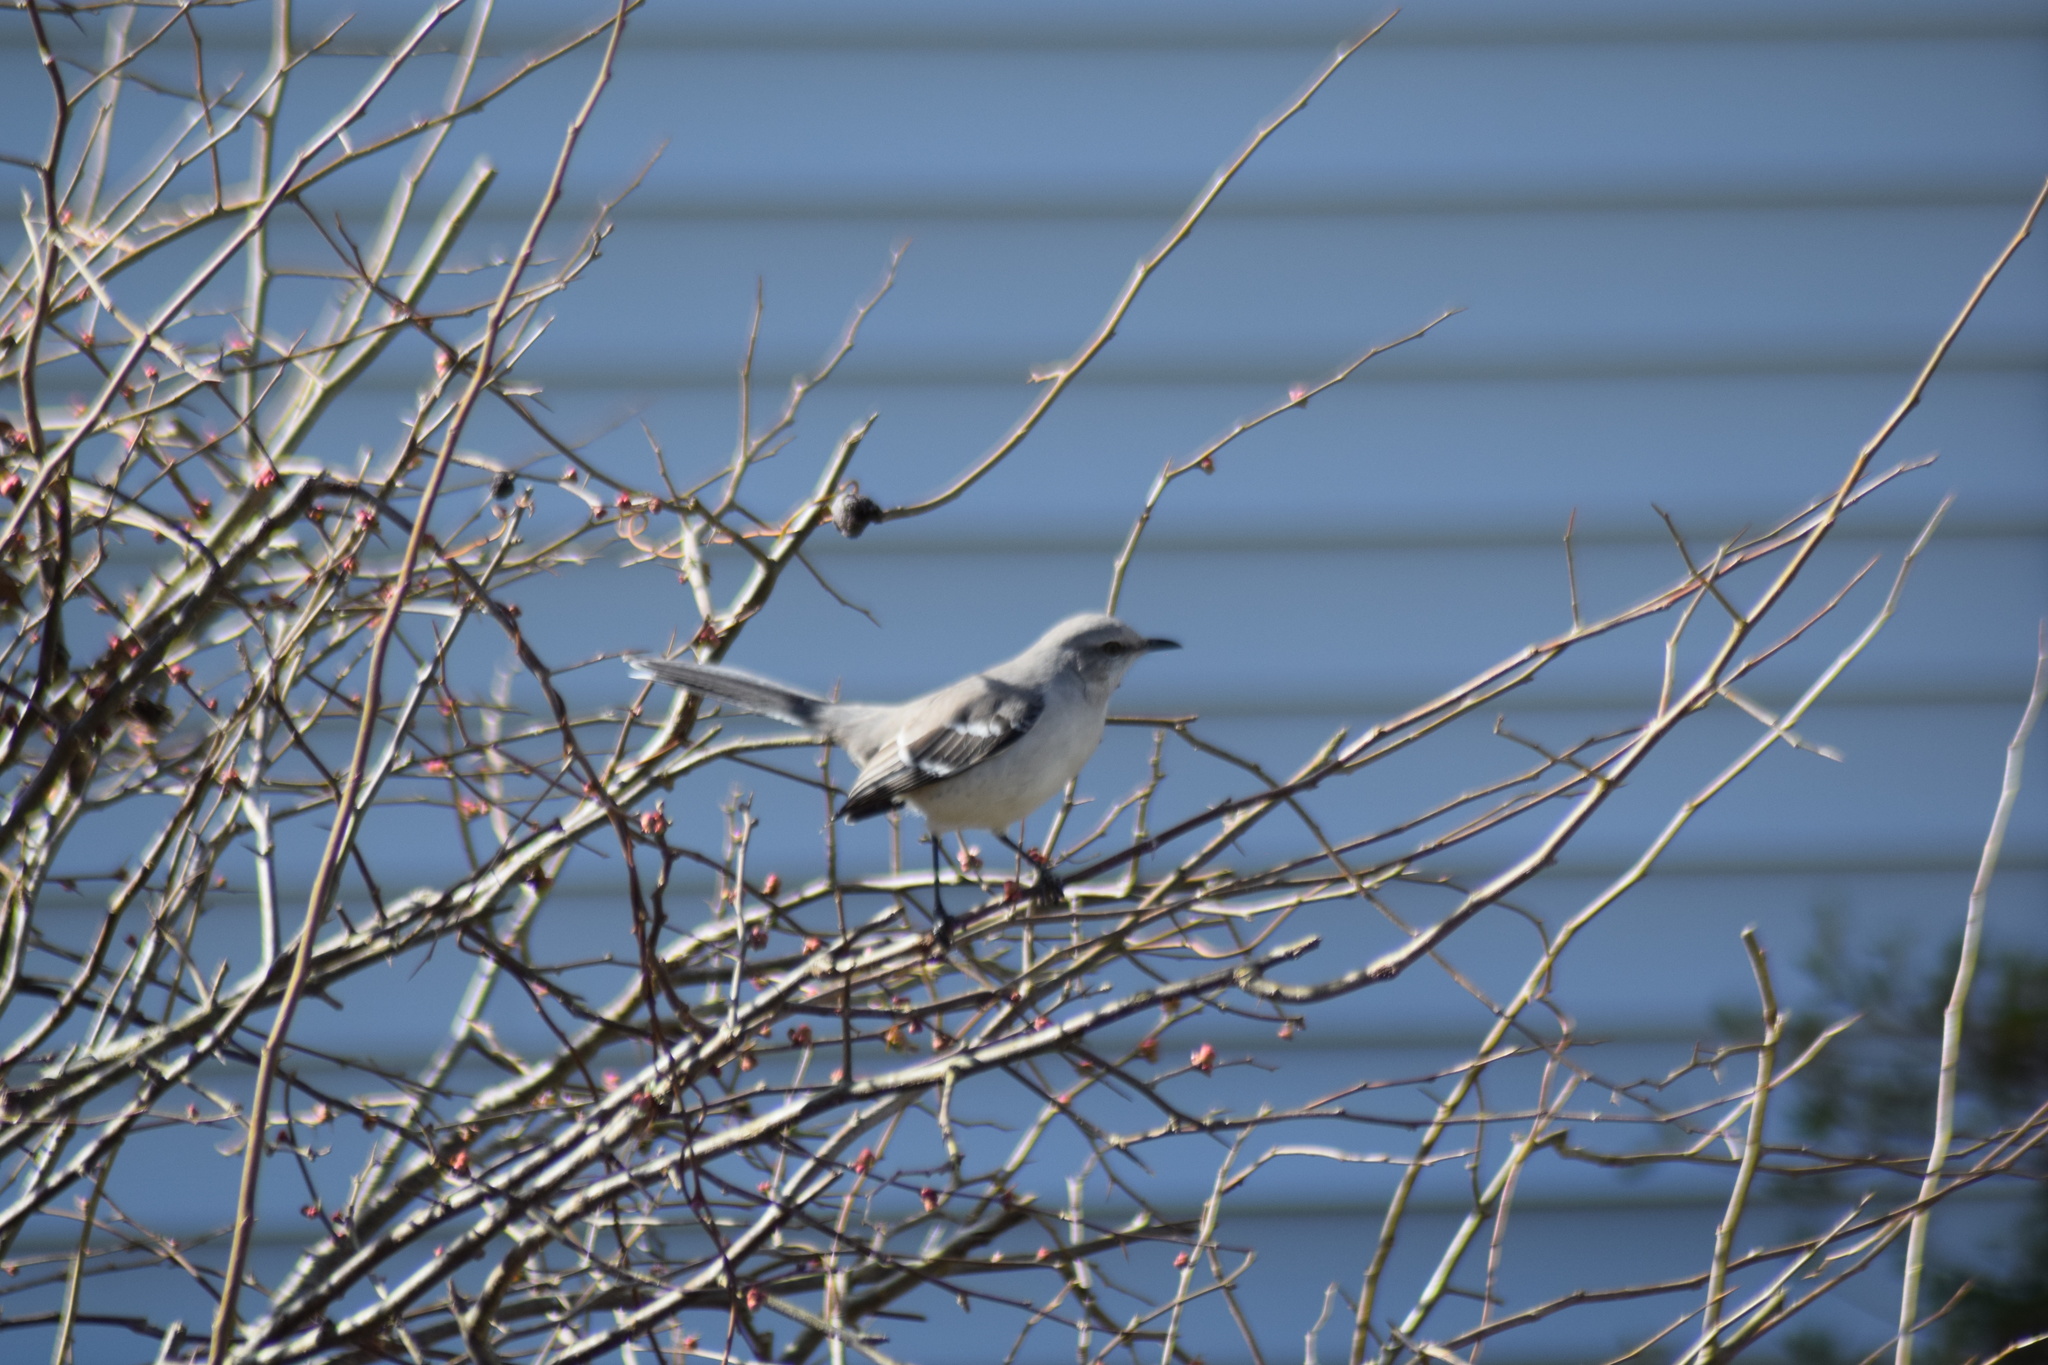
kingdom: Animalia
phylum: Chordata
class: Aves
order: Passeriformes
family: Mimidae
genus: Mimus
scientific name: Mimus polyglottos
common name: Northern mockingbird
